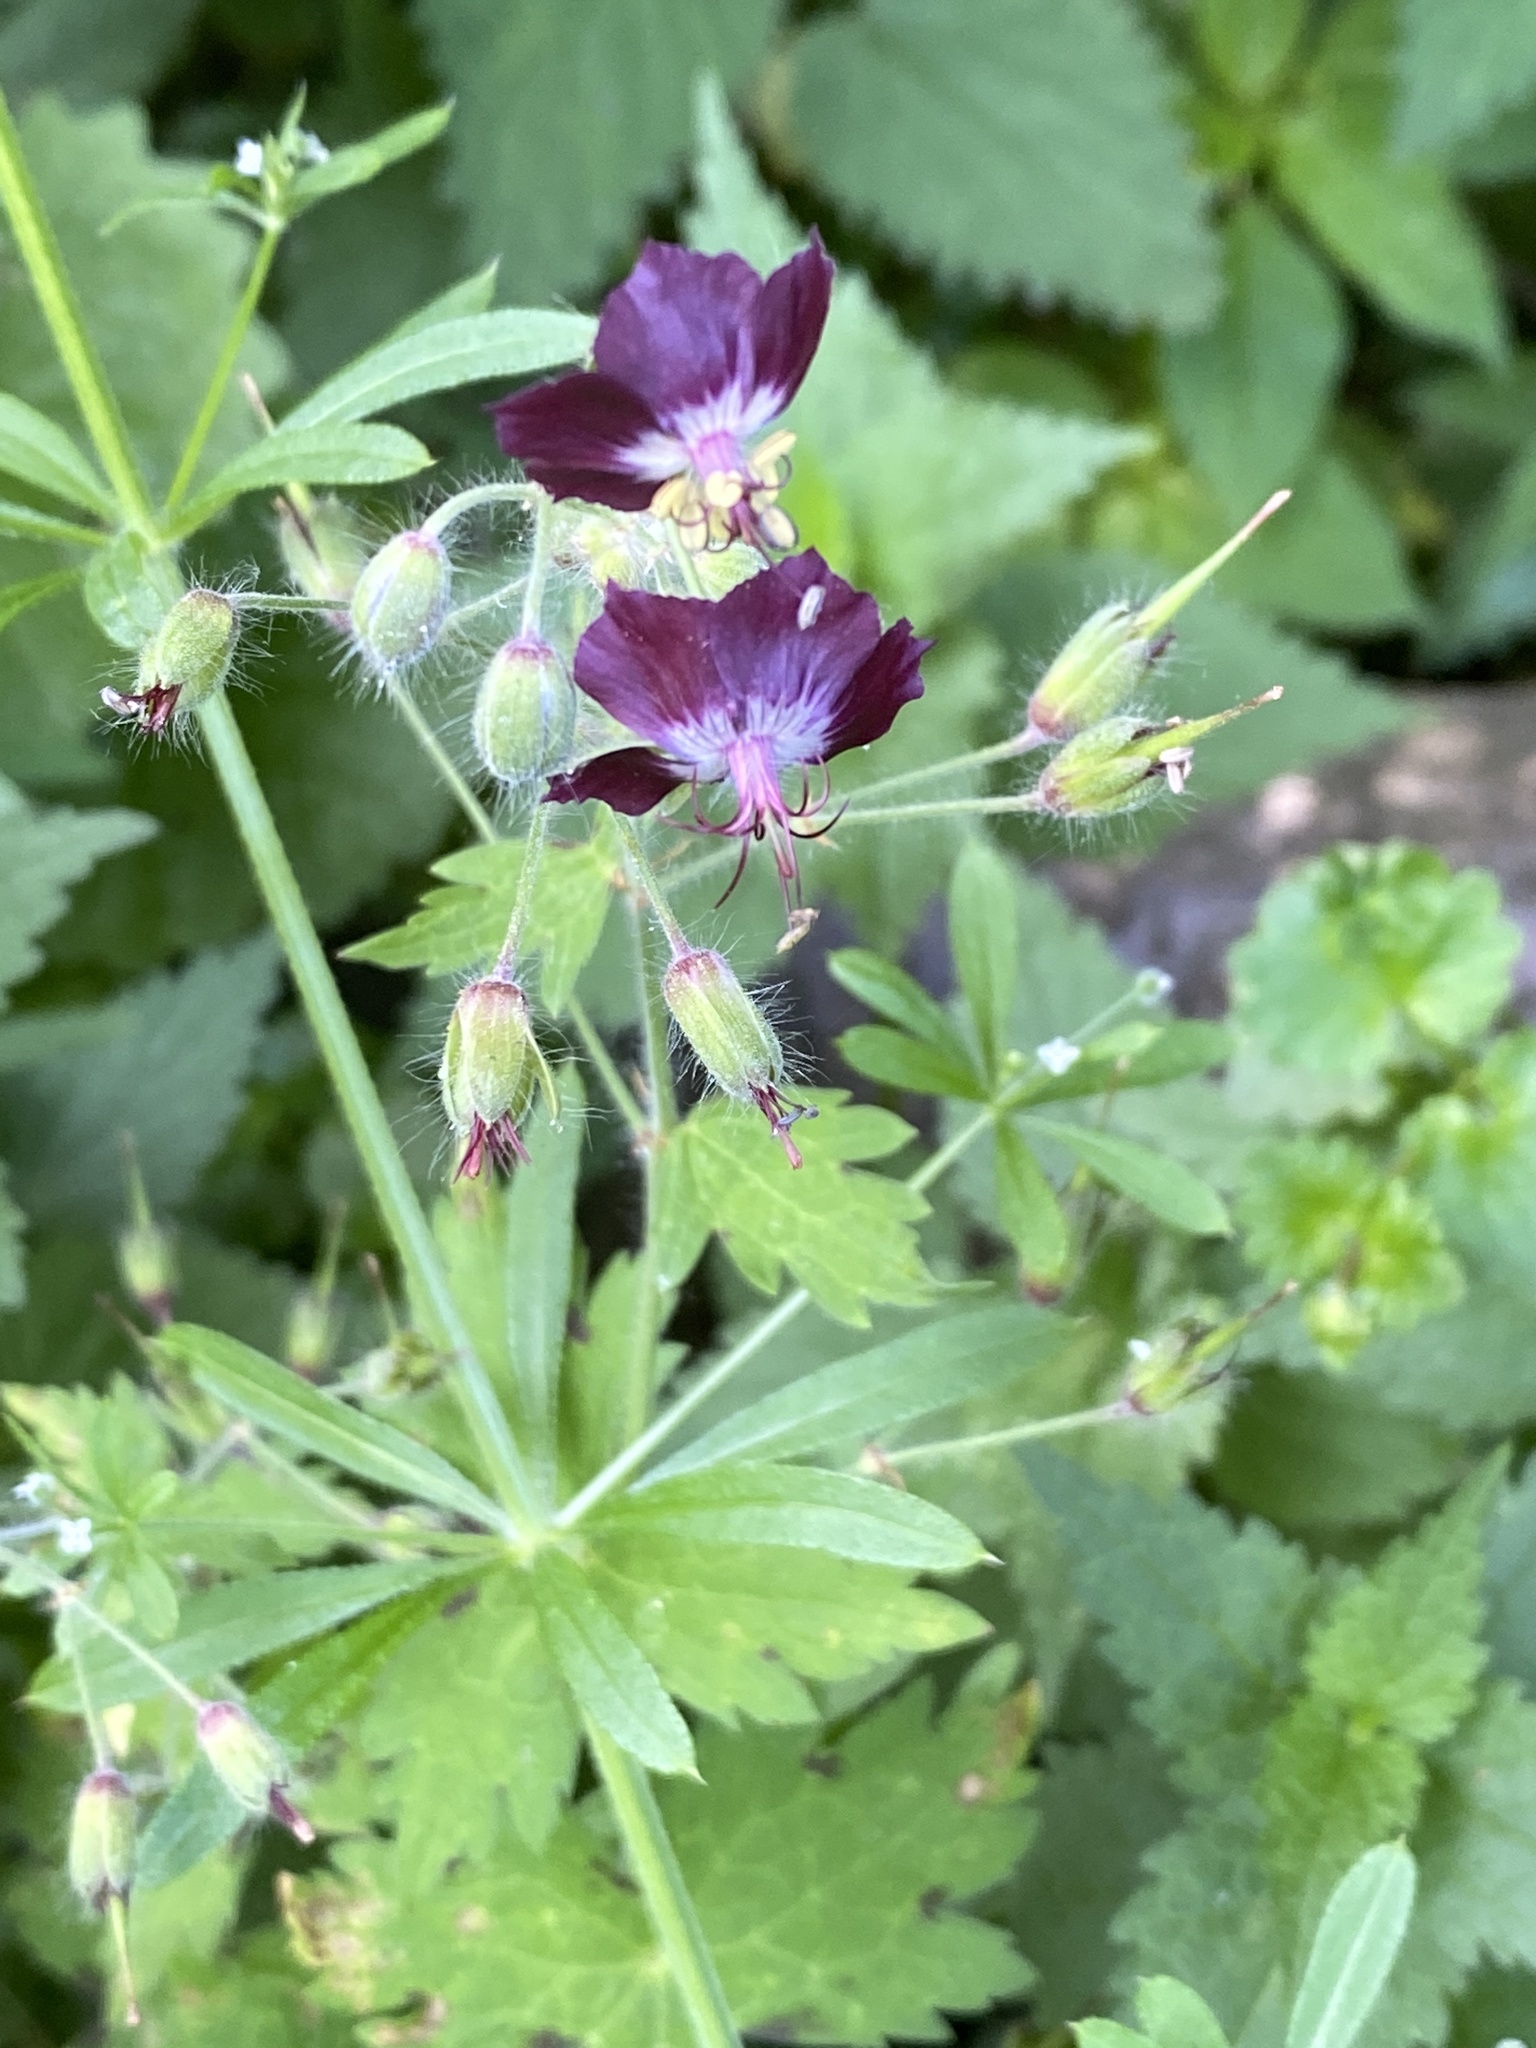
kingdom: Plantae
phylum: Tracheophyta
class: Magnoliopsida
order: Geraniales
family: Geraniaceae
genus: Geranium
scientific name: Geranium phaeum
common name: Dusky crane's-bill
